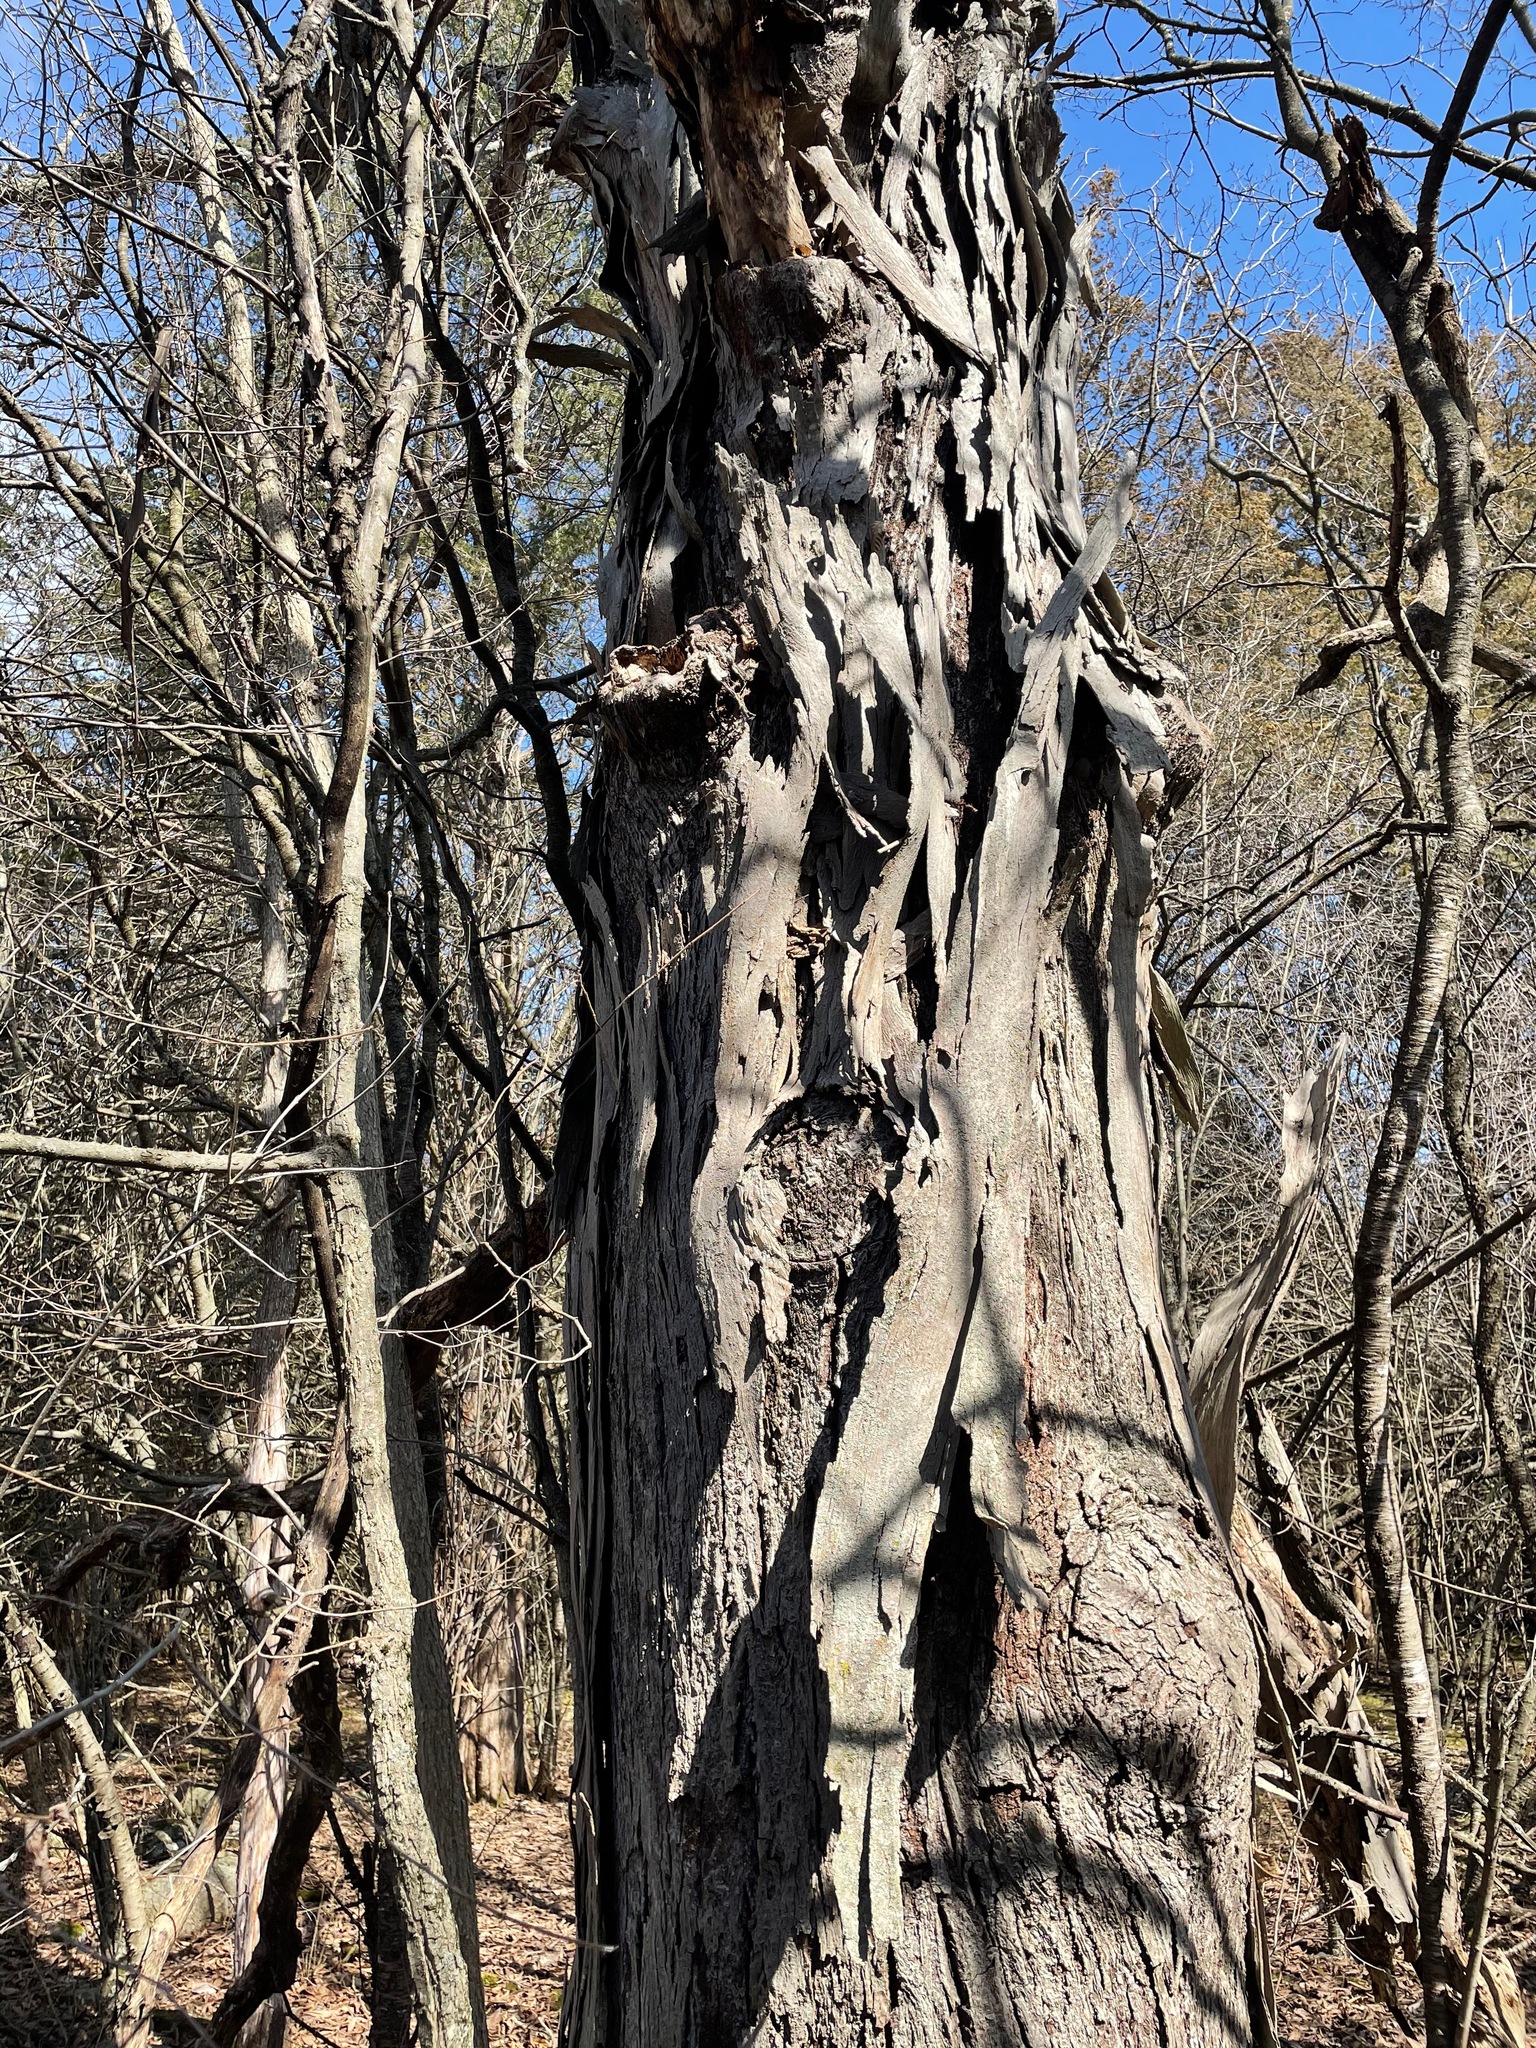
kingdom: Plantae
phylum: Tracheophyta
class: Magnoliopsida
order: Fagales
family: Juglandaceae
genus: Carya
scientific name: Carya ovata
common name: Shagbark hickory
